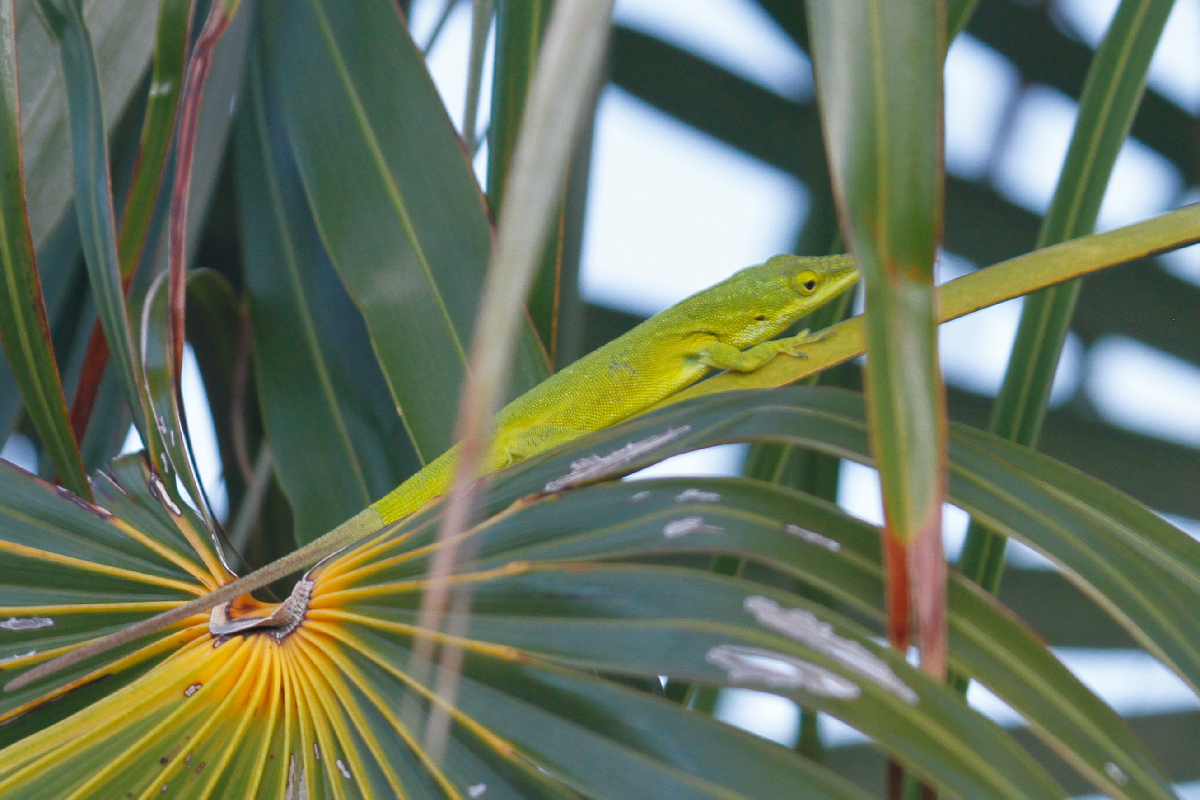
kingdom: Animalia
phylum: Chordata
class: Squamata
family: Dactyloidae
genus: Anolis
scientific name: Anolis smaragdinus
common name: Bahamian green anole
